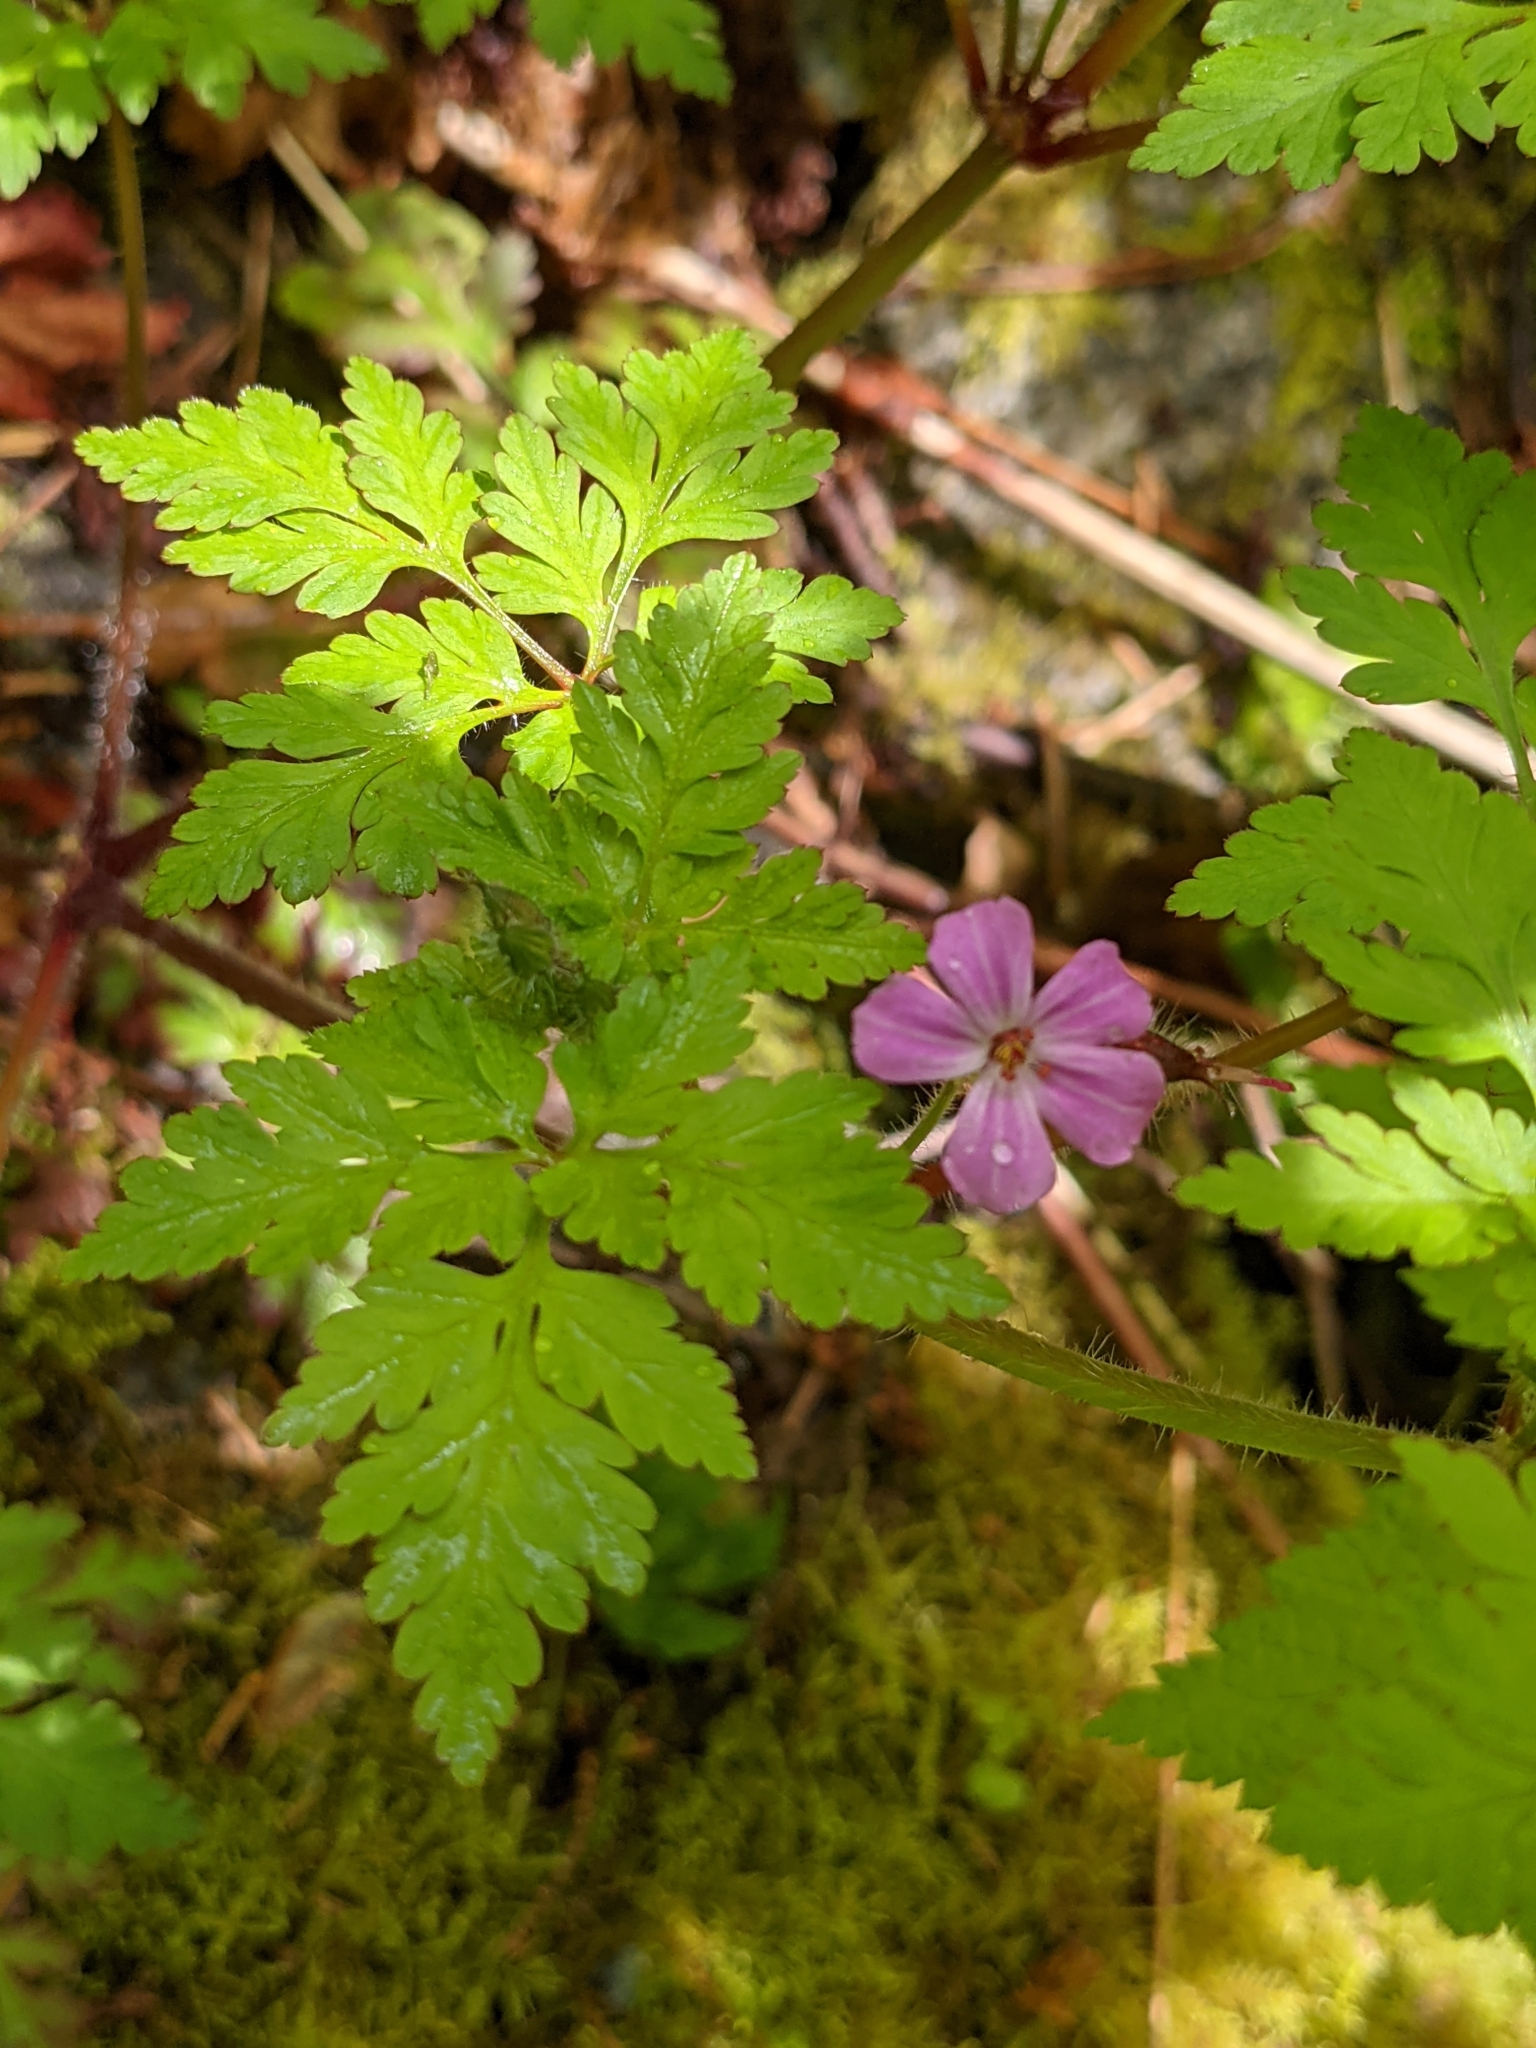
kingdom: Plantae
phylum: Tracheophyta
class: Magnoliopsida
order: Geraniales
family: Geraniaceae
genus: Geranium
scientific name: Geranium robertianum
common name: Herb-robert
